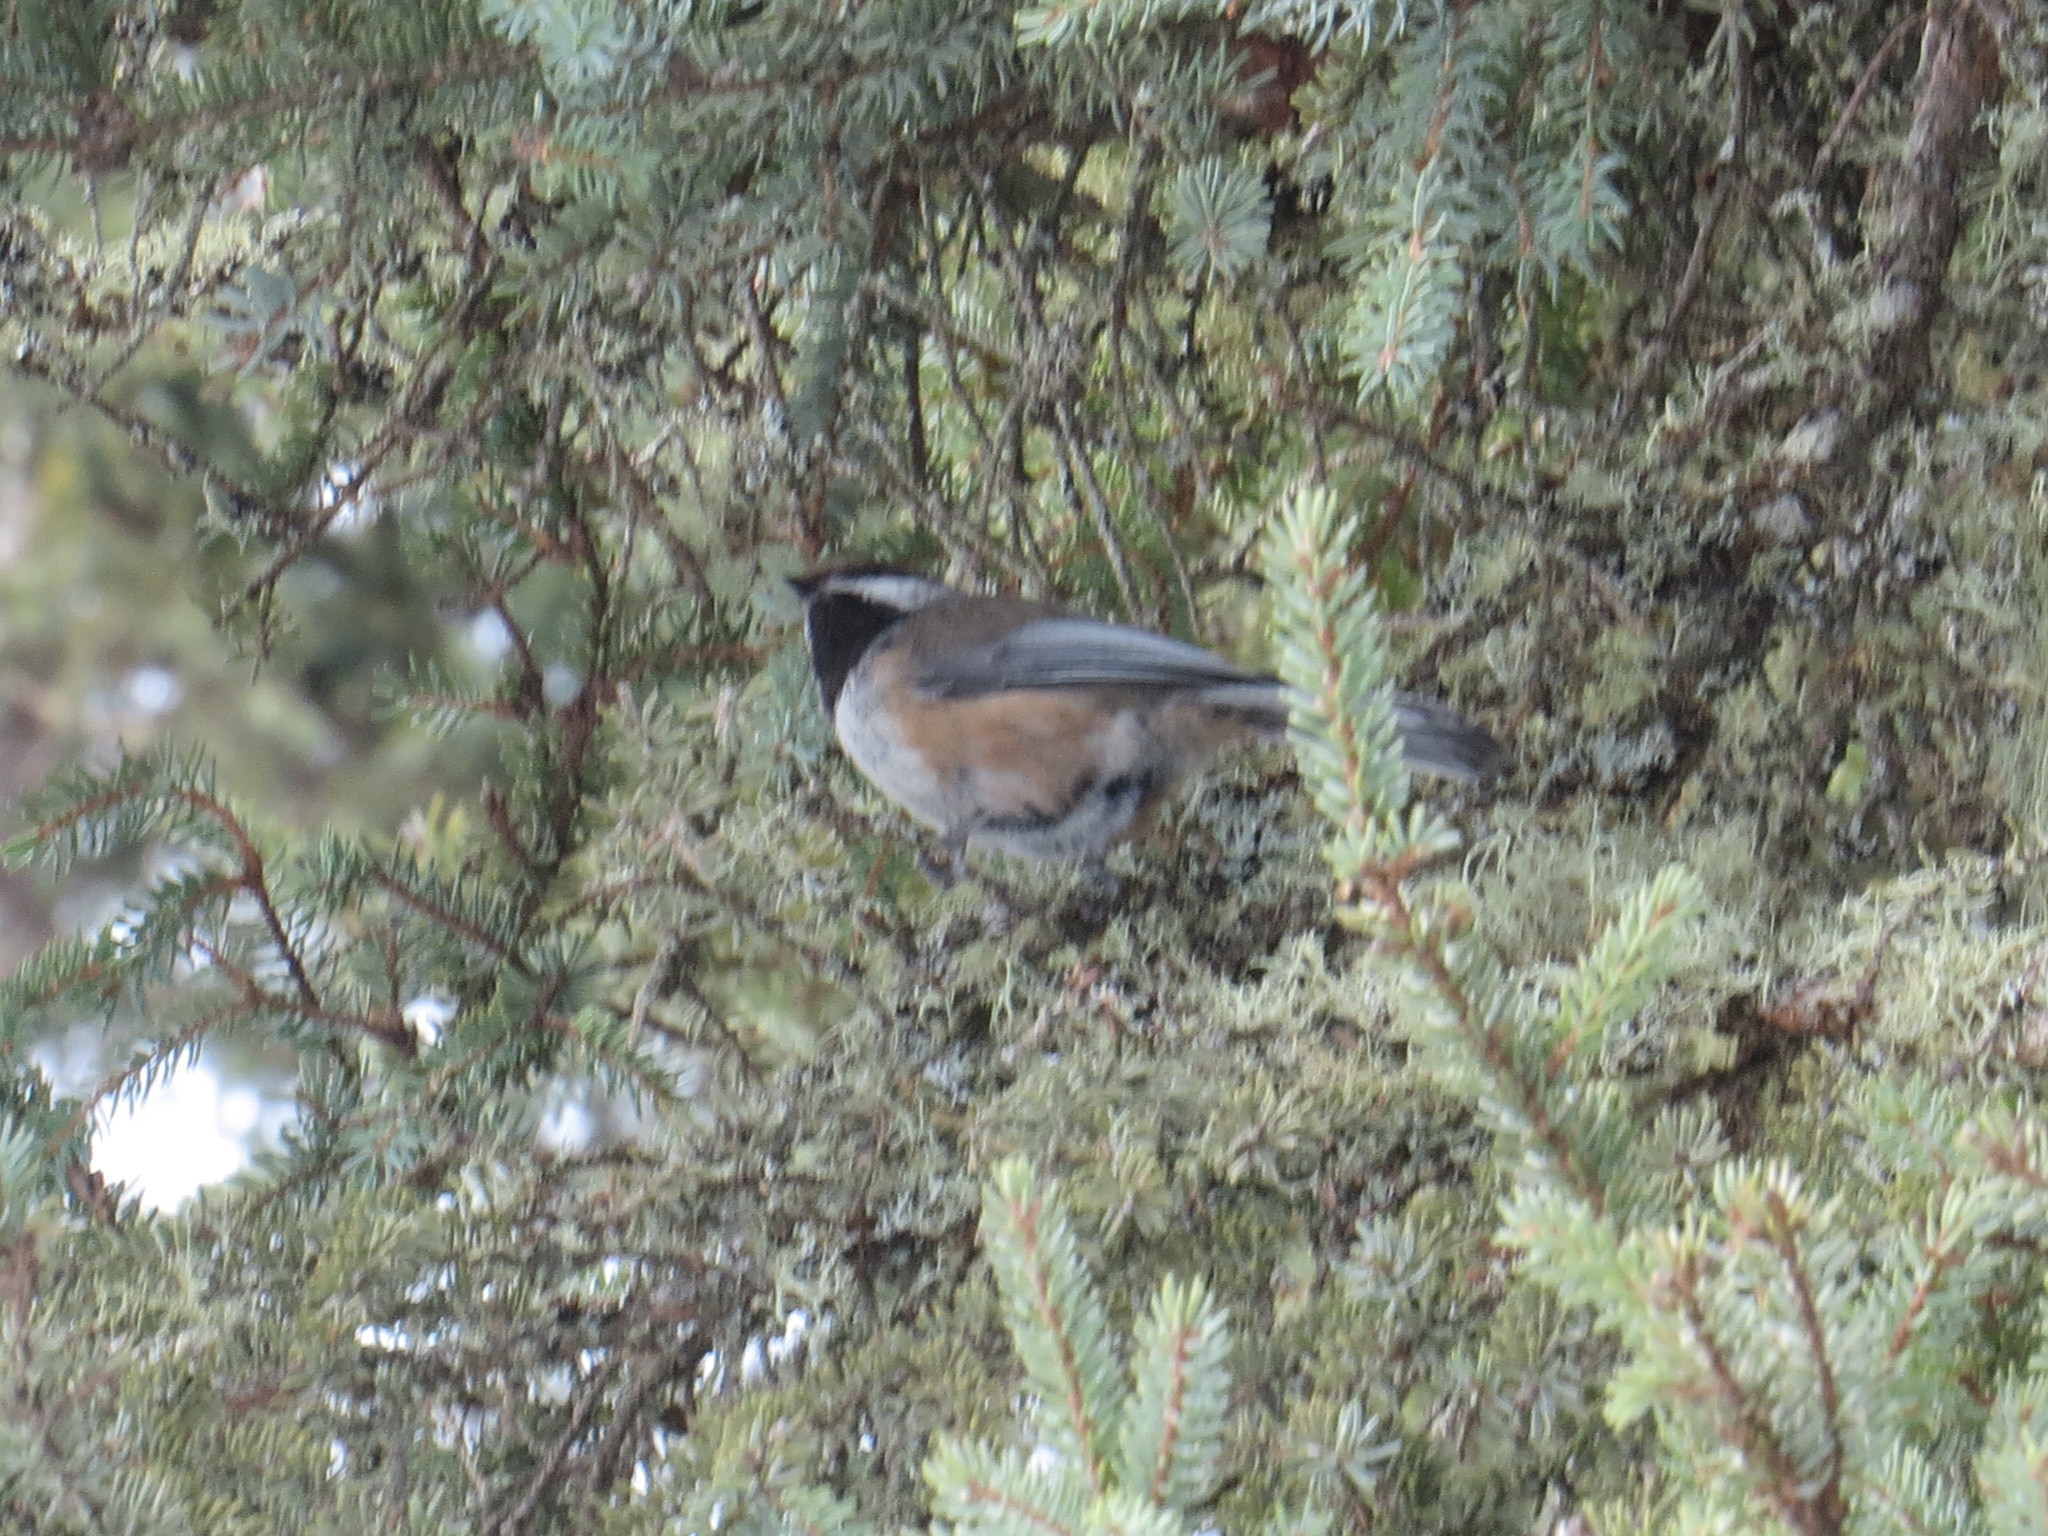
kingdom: Animalia
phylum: Chordata
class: Aves
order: Passeriformes
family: Paridae
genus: Poecile
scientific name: Poecile hudsonicus
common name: Boreal chickadee
